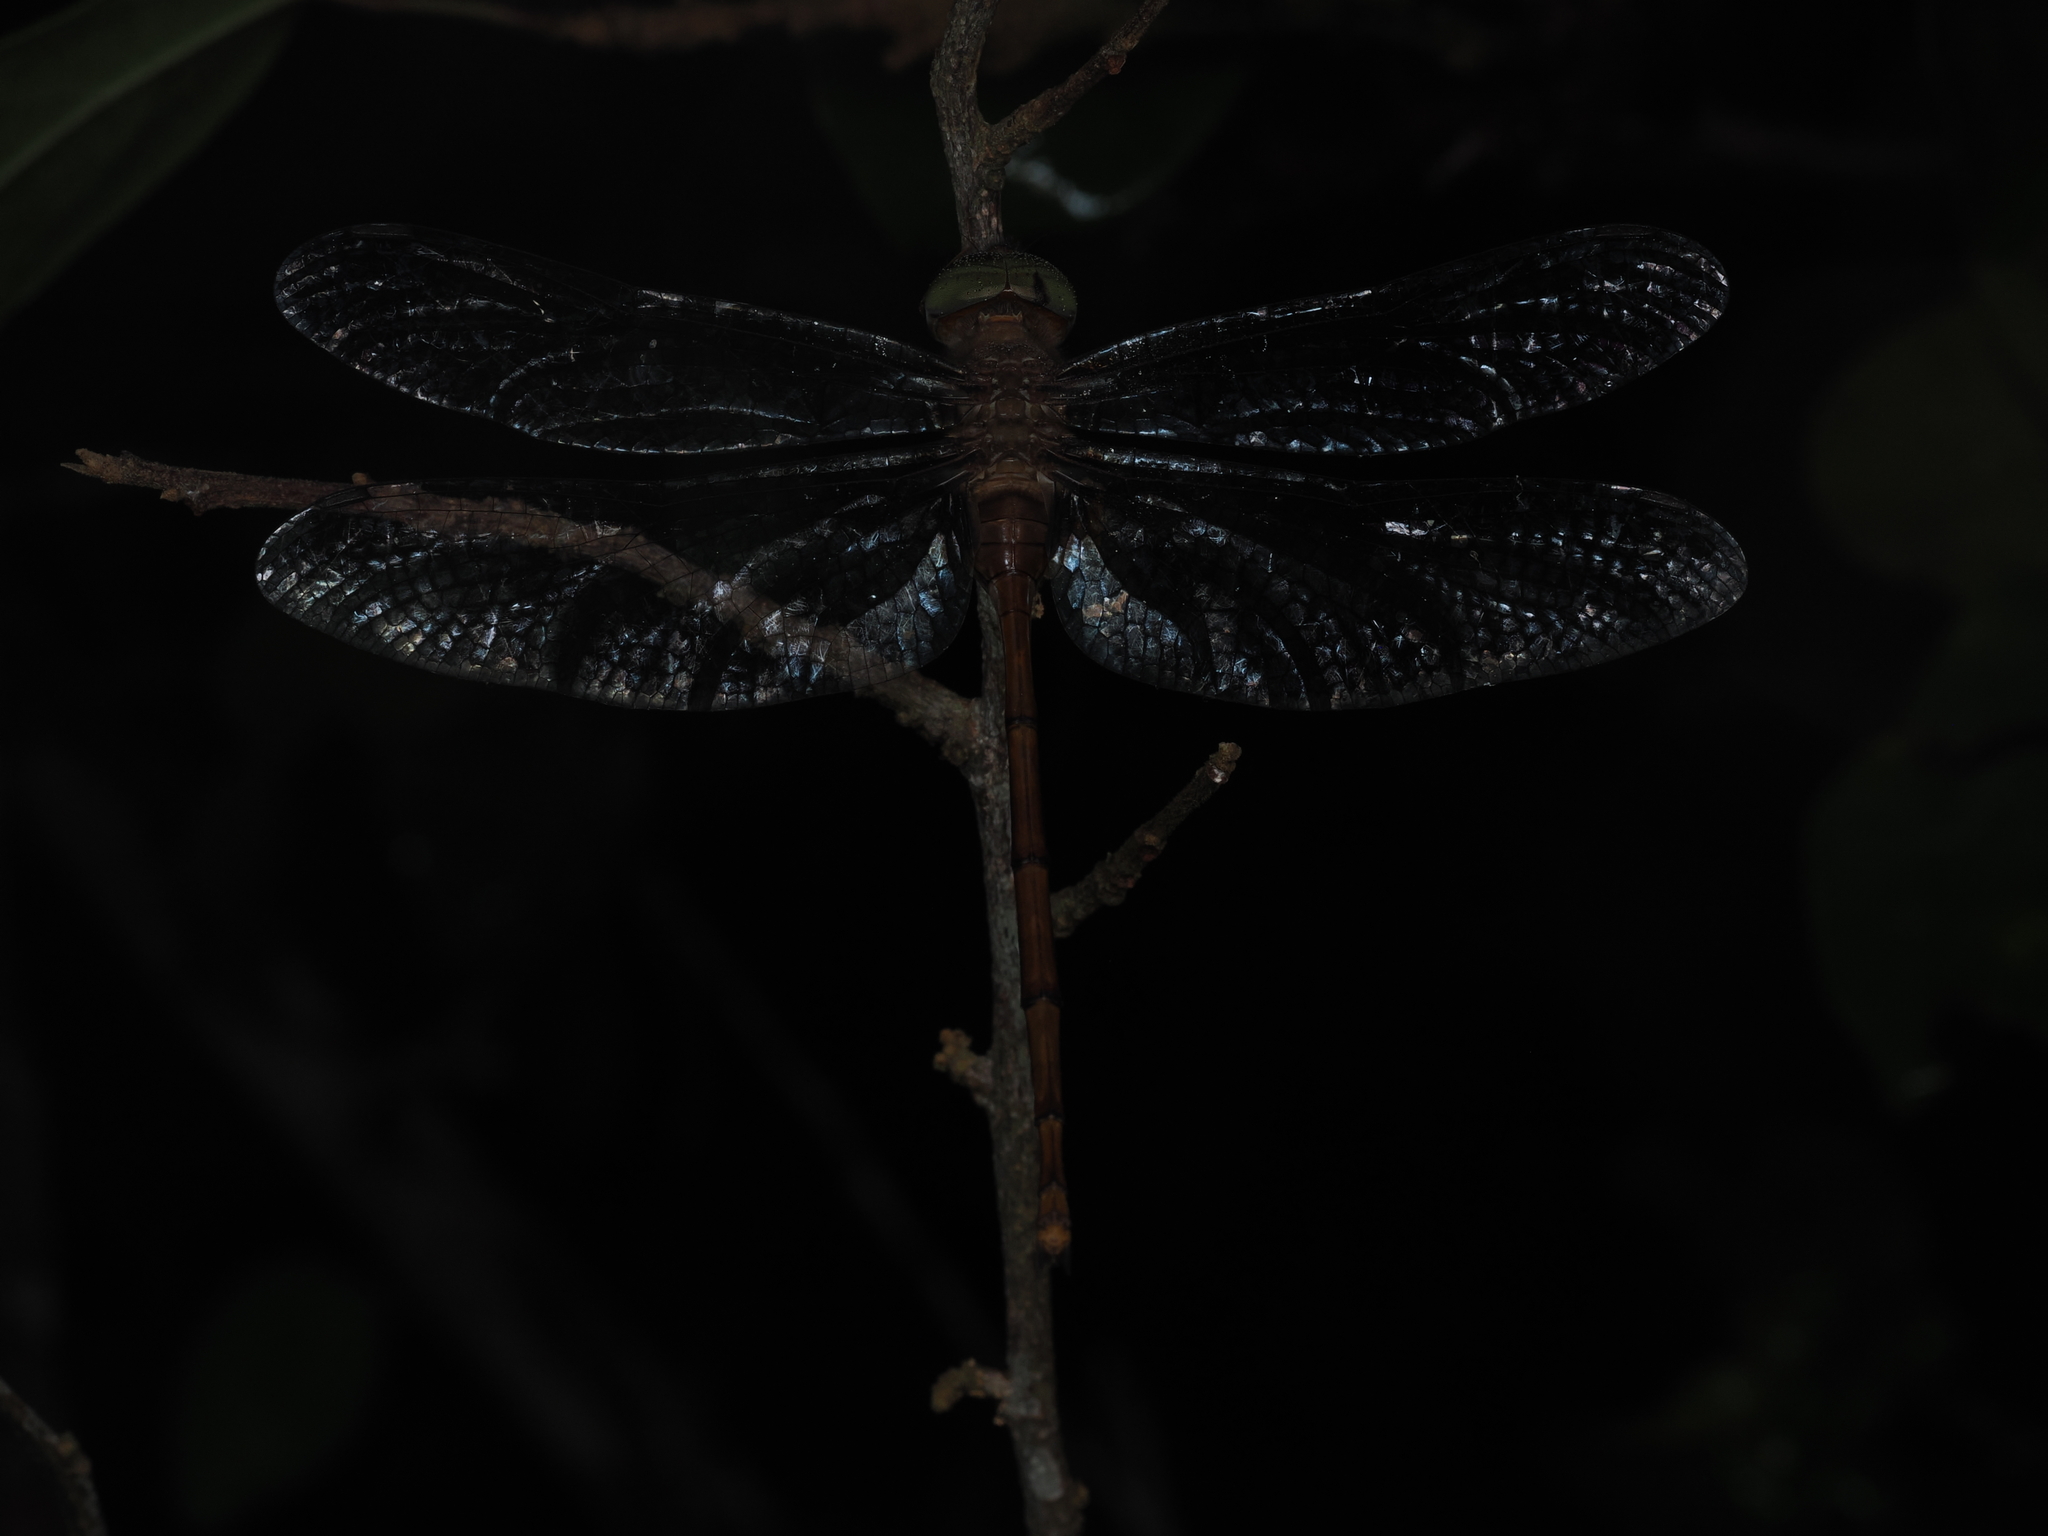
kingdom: Animalia
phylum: Arthropoda
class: Insecta
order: Odonata
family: Libellulidae
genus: Zyxomma
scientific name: Zyxomma petiolatum
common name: Dingy dusk-darter
